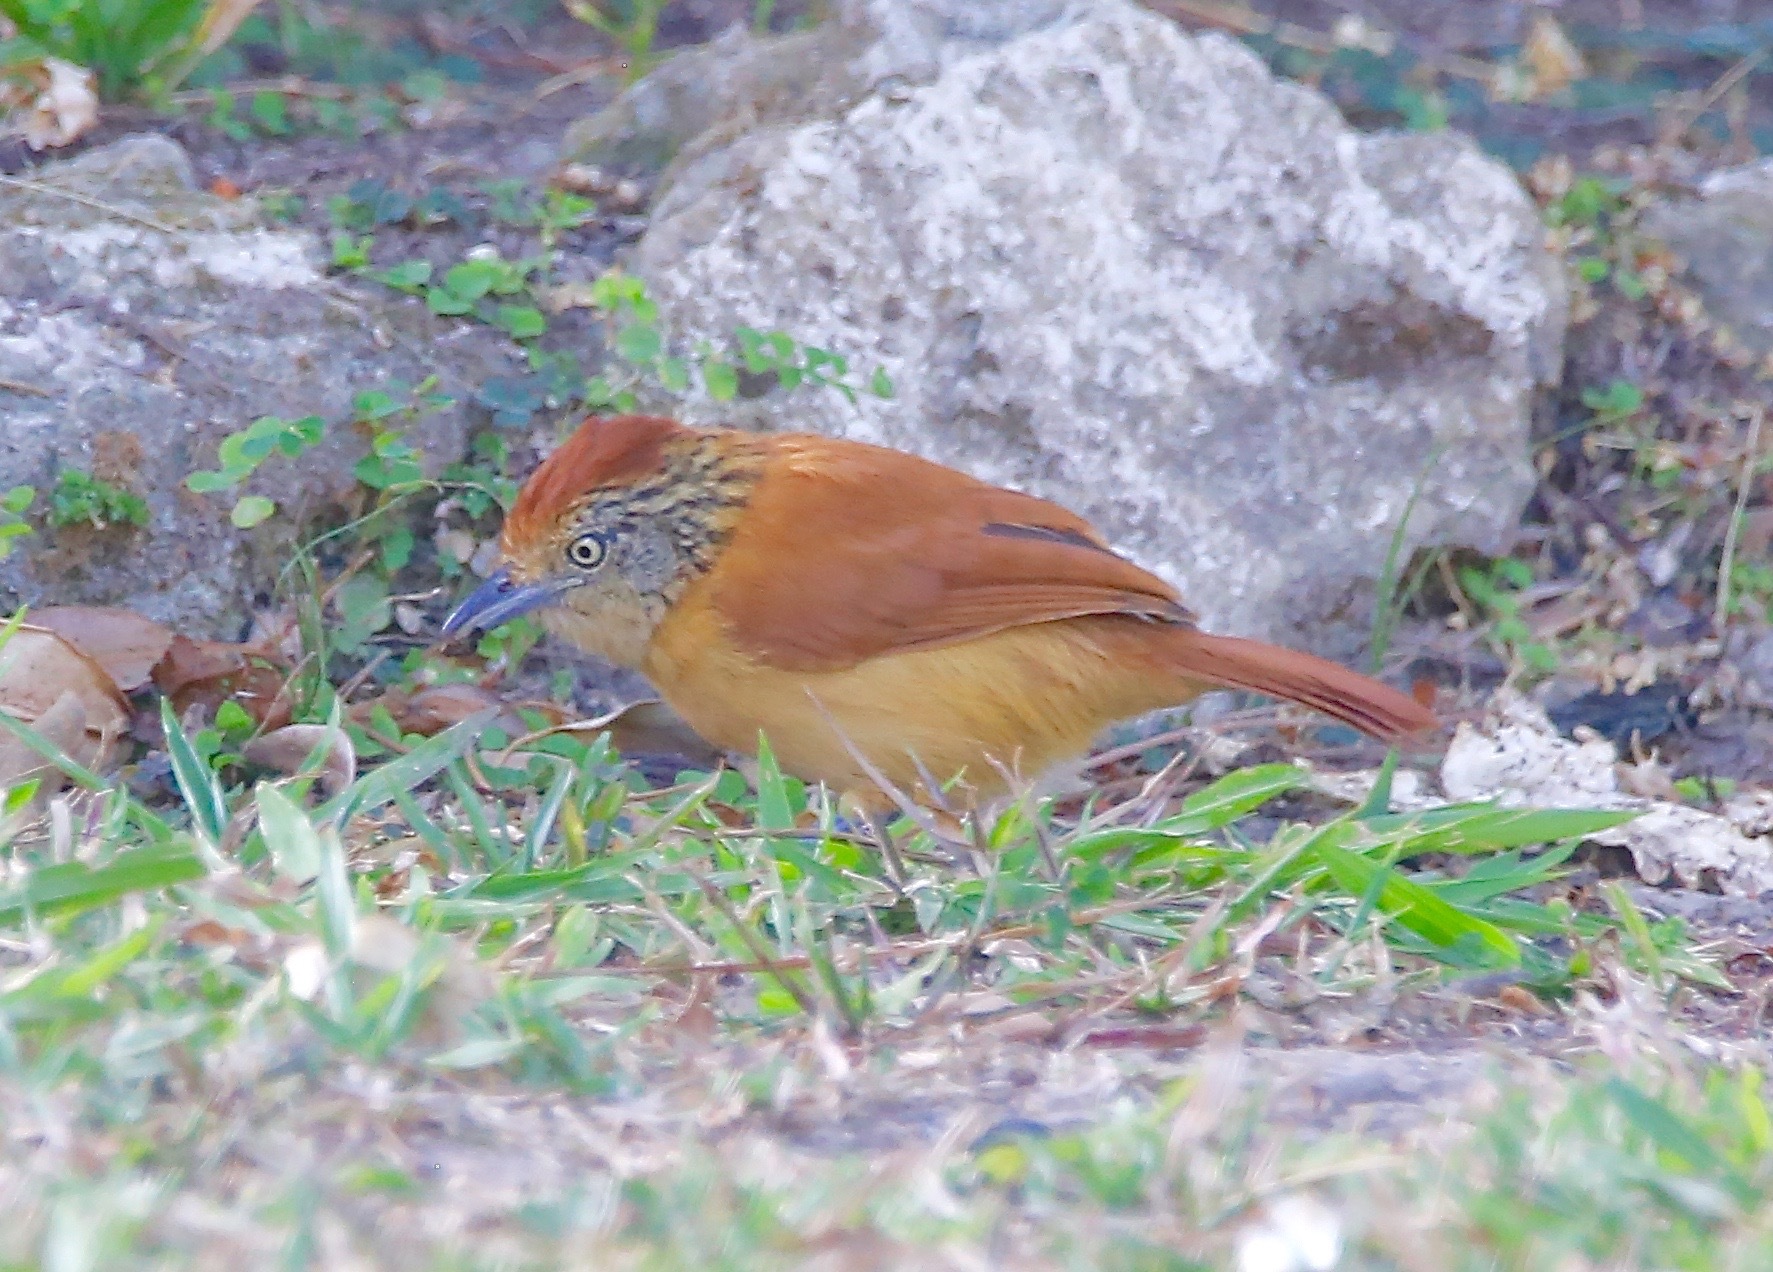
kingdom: Animalia
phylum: Chordata
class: Aves
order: Passeriformes
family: Thamnophilidae
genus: Thamnophilus
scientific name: Thamnophilus doliatus
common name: Barred antshrike
